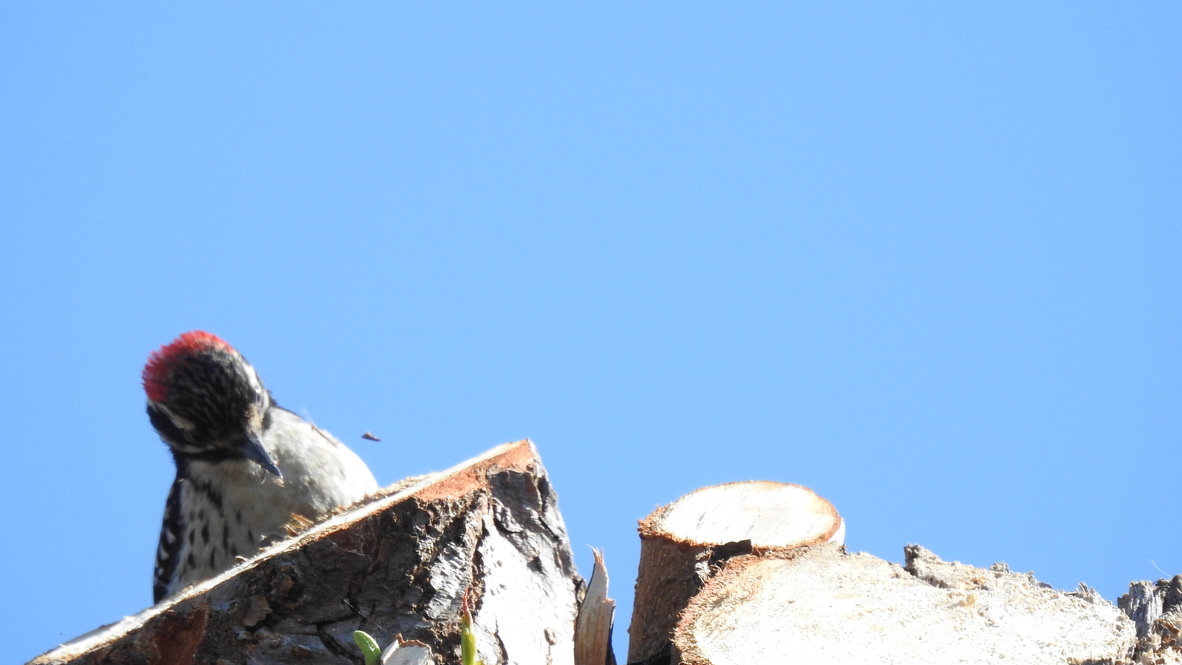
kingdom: Animalia
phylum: Chordata
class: Aves
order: Piciformes
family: Picidae
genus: Dryobates
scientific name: Dryobates nuttallii
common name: Nuttall's woodpecker
